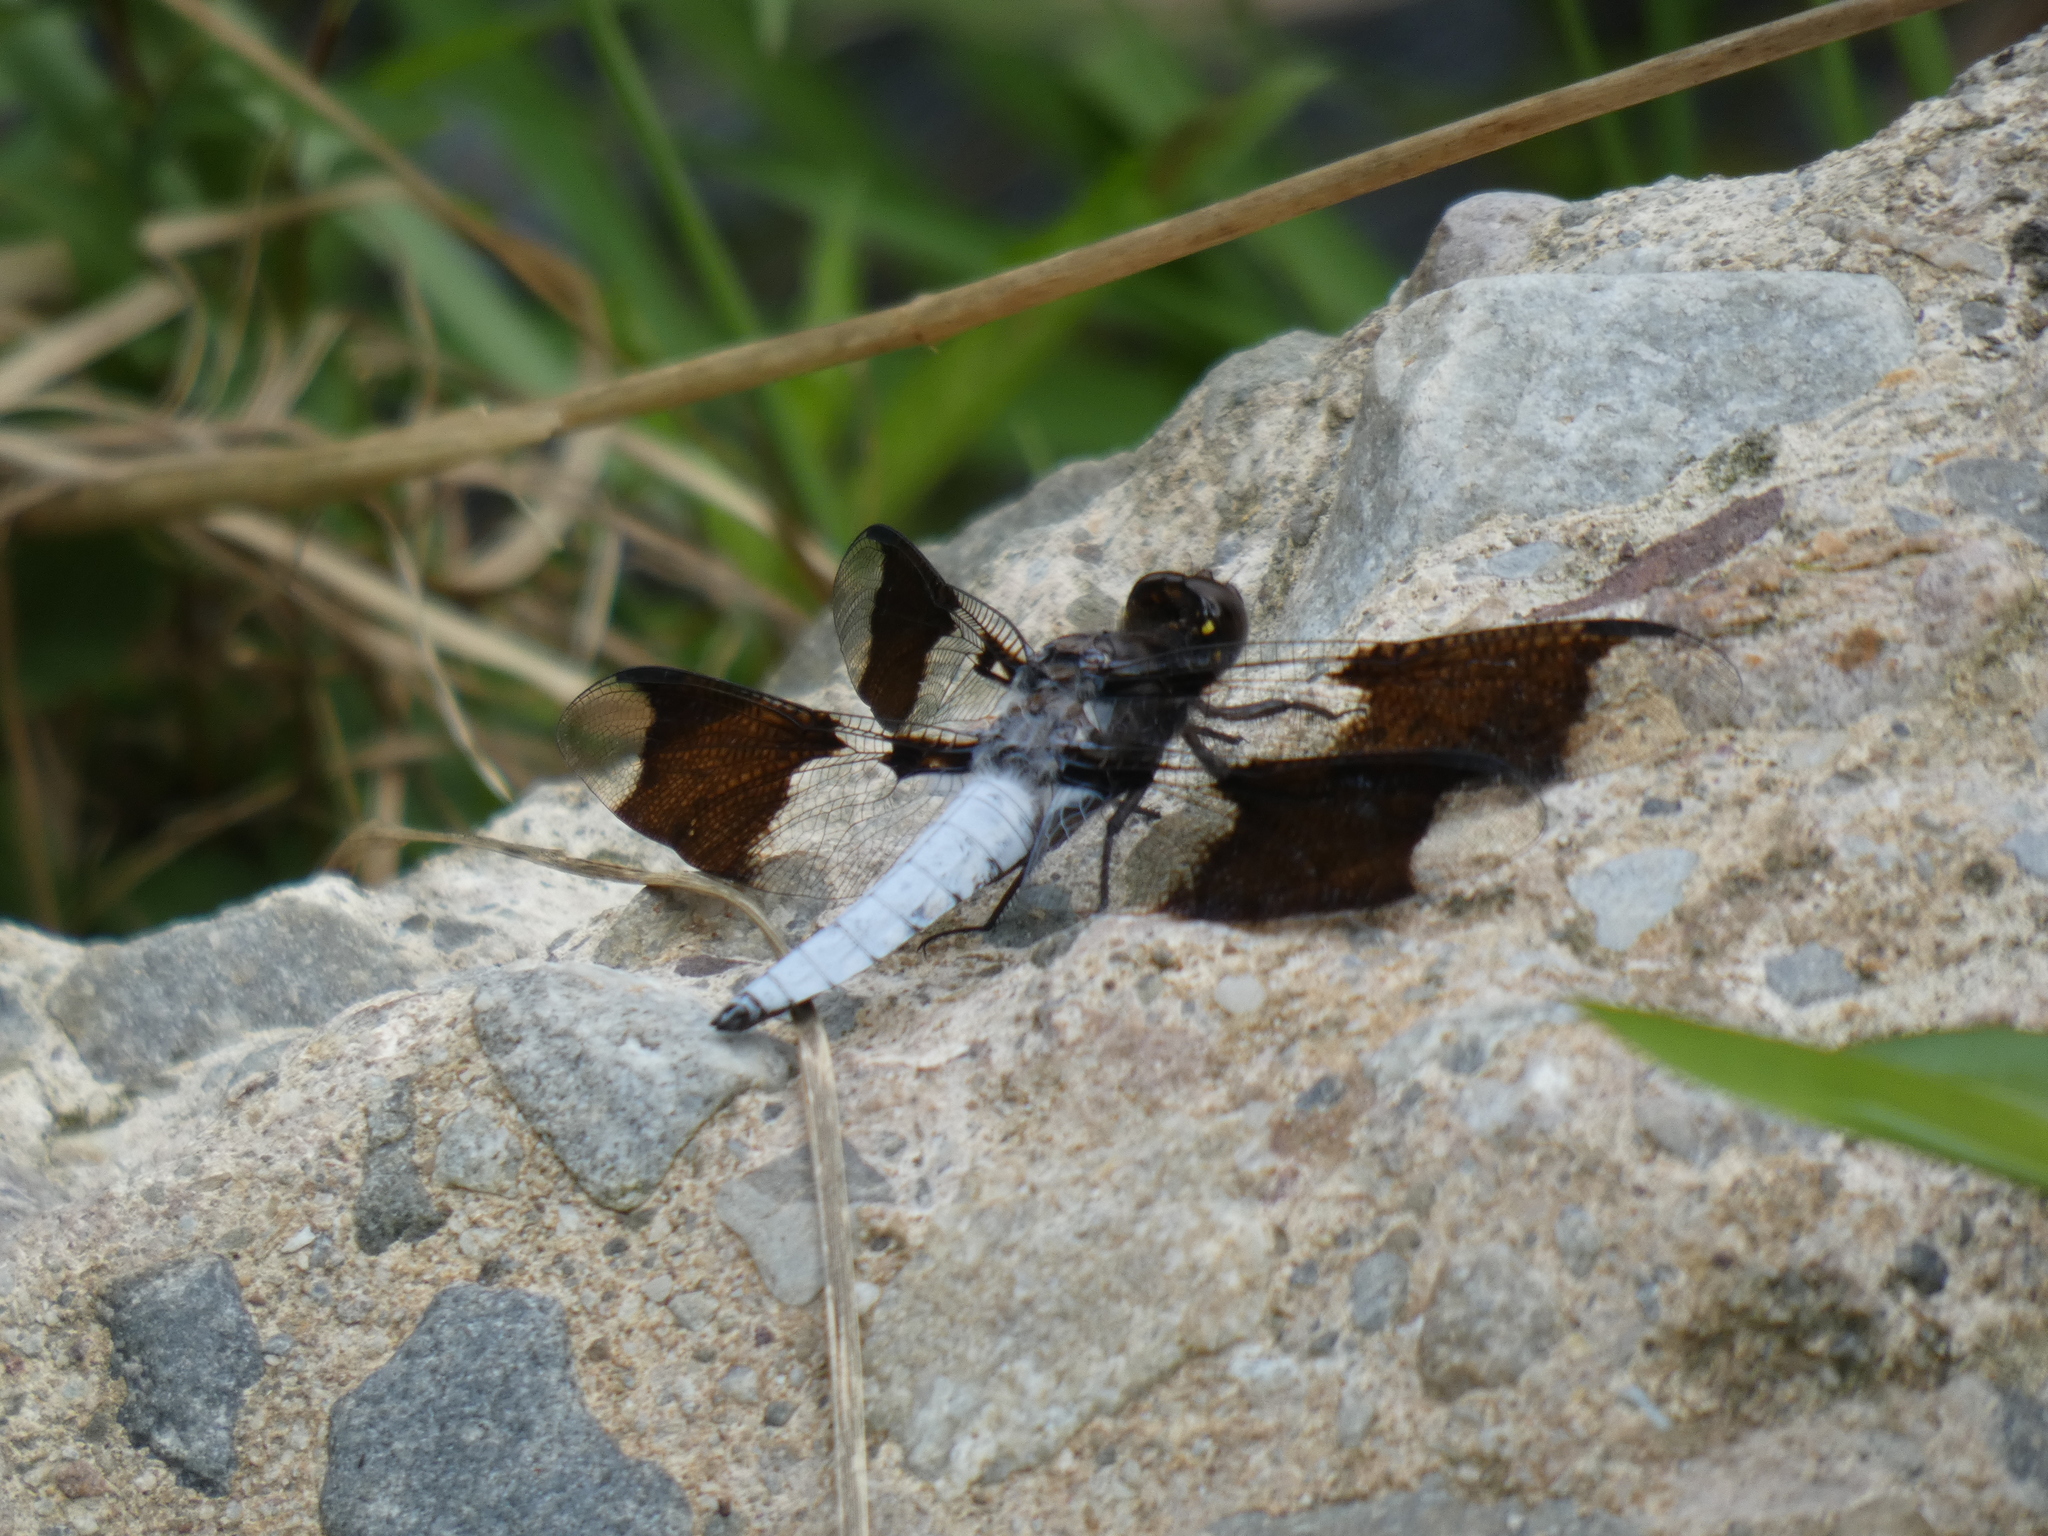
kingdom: Animalia
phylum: Arthropoda
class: Insecta
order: Odonata
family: Libellulidae
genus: Plathemis
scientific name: Plathemis lydia
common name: Common whitetail
